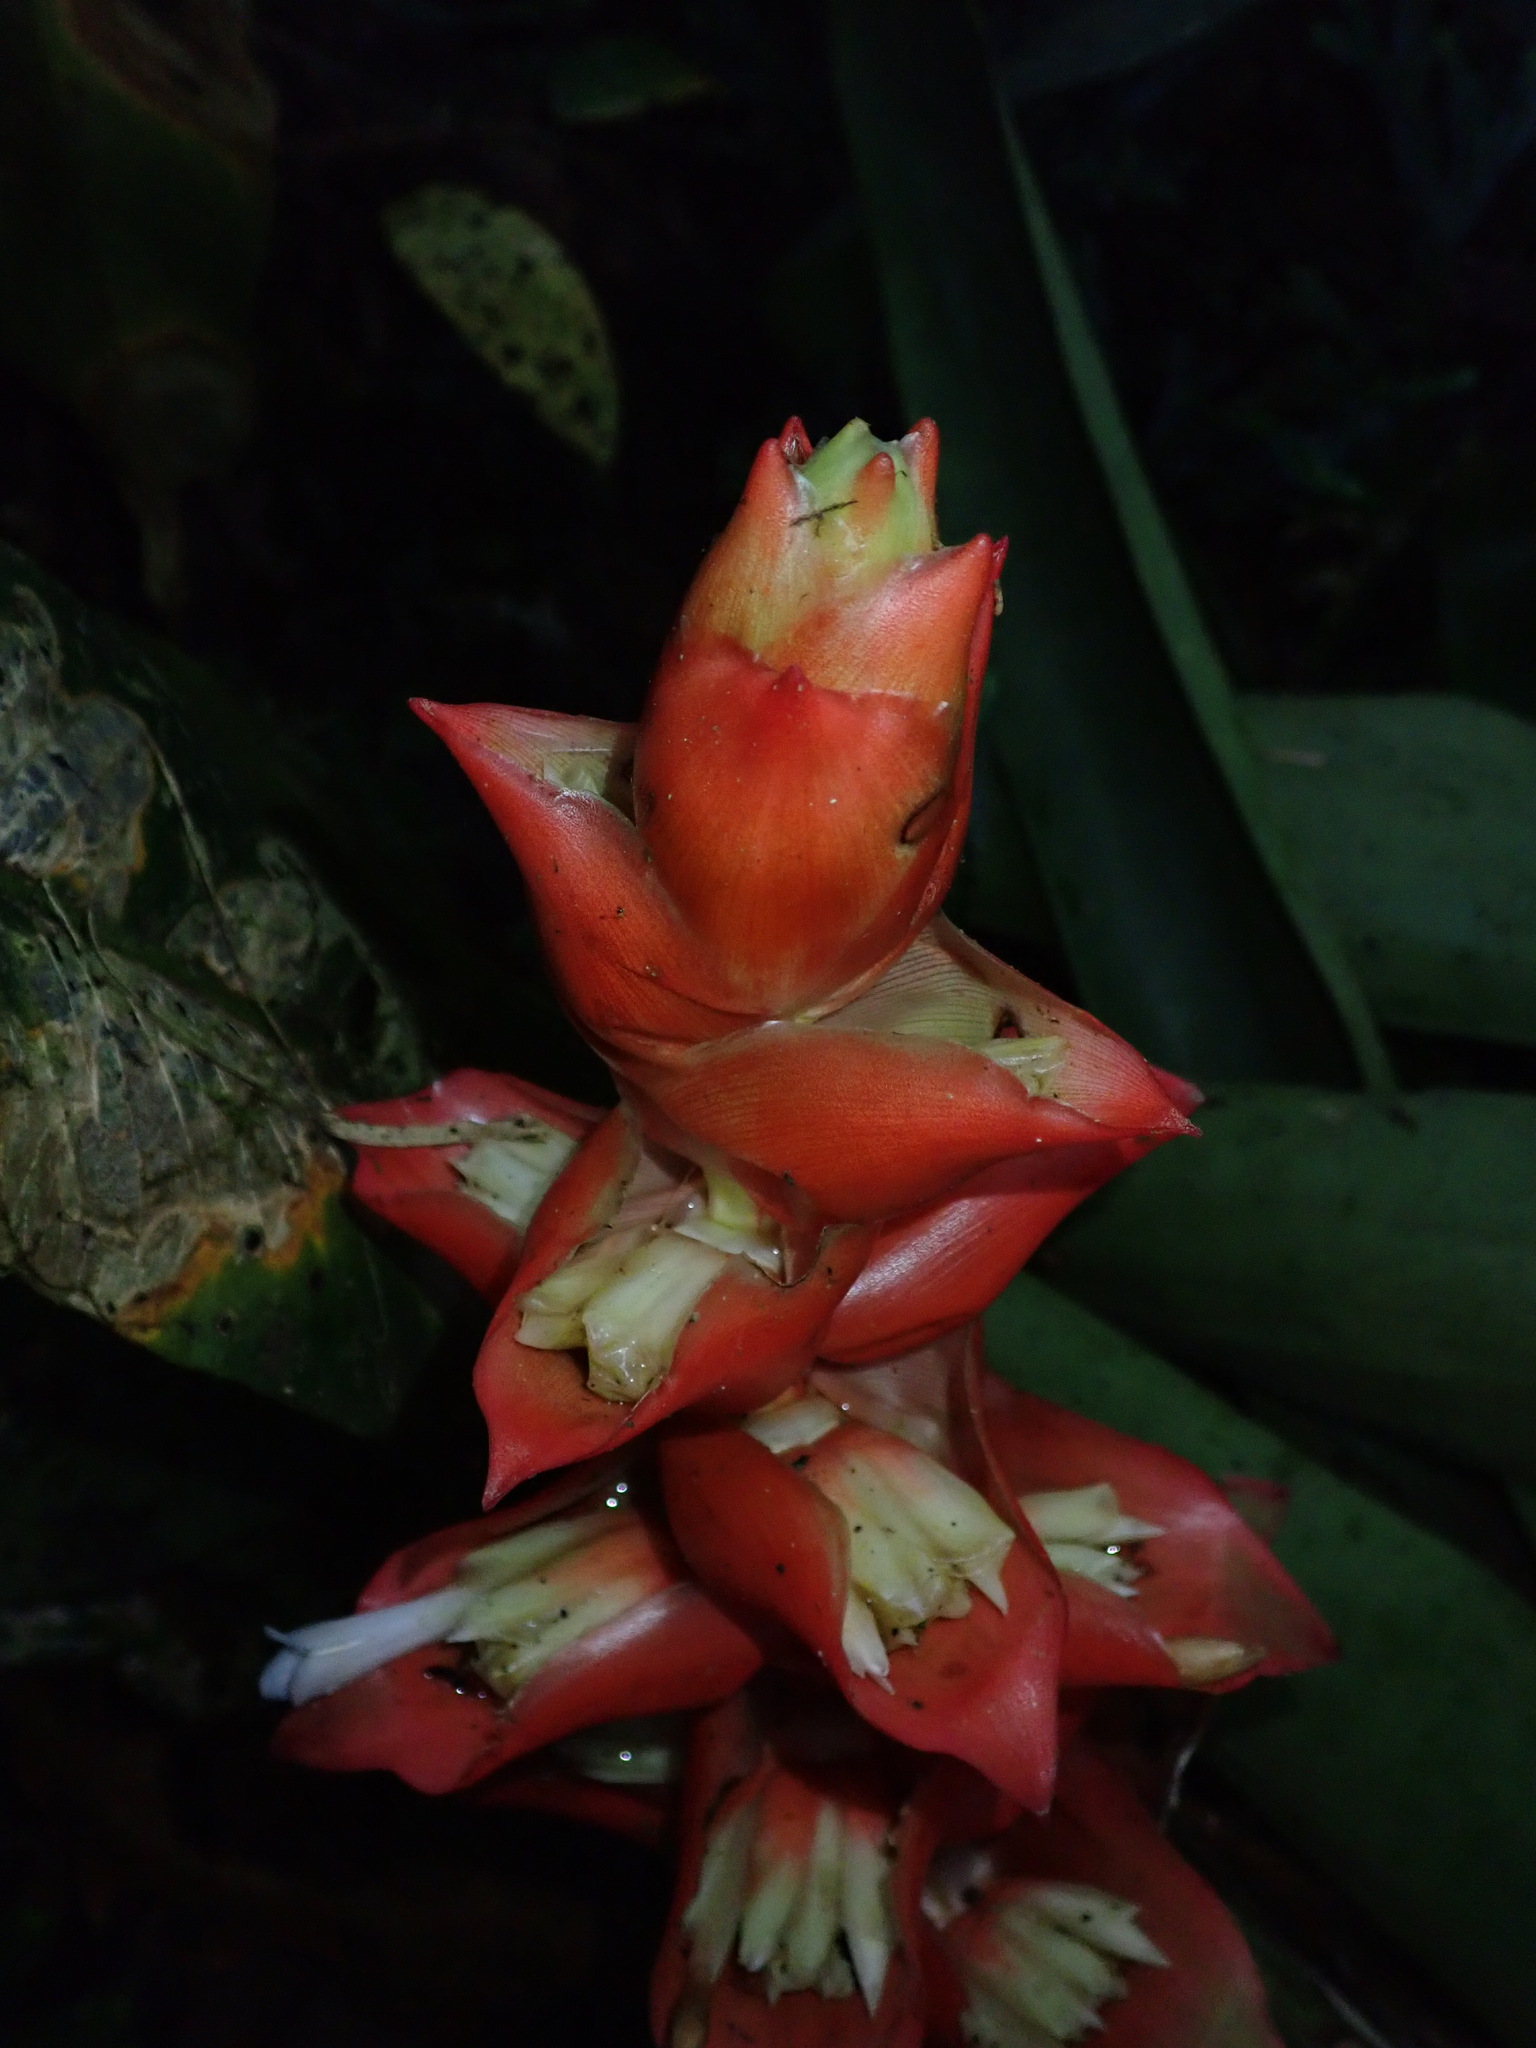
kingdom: Plantae
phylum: Tracheophyta
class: Liliopsida
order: Poales
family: Bromeliaceae
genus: Guzmania
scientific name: Guzmania variegata
